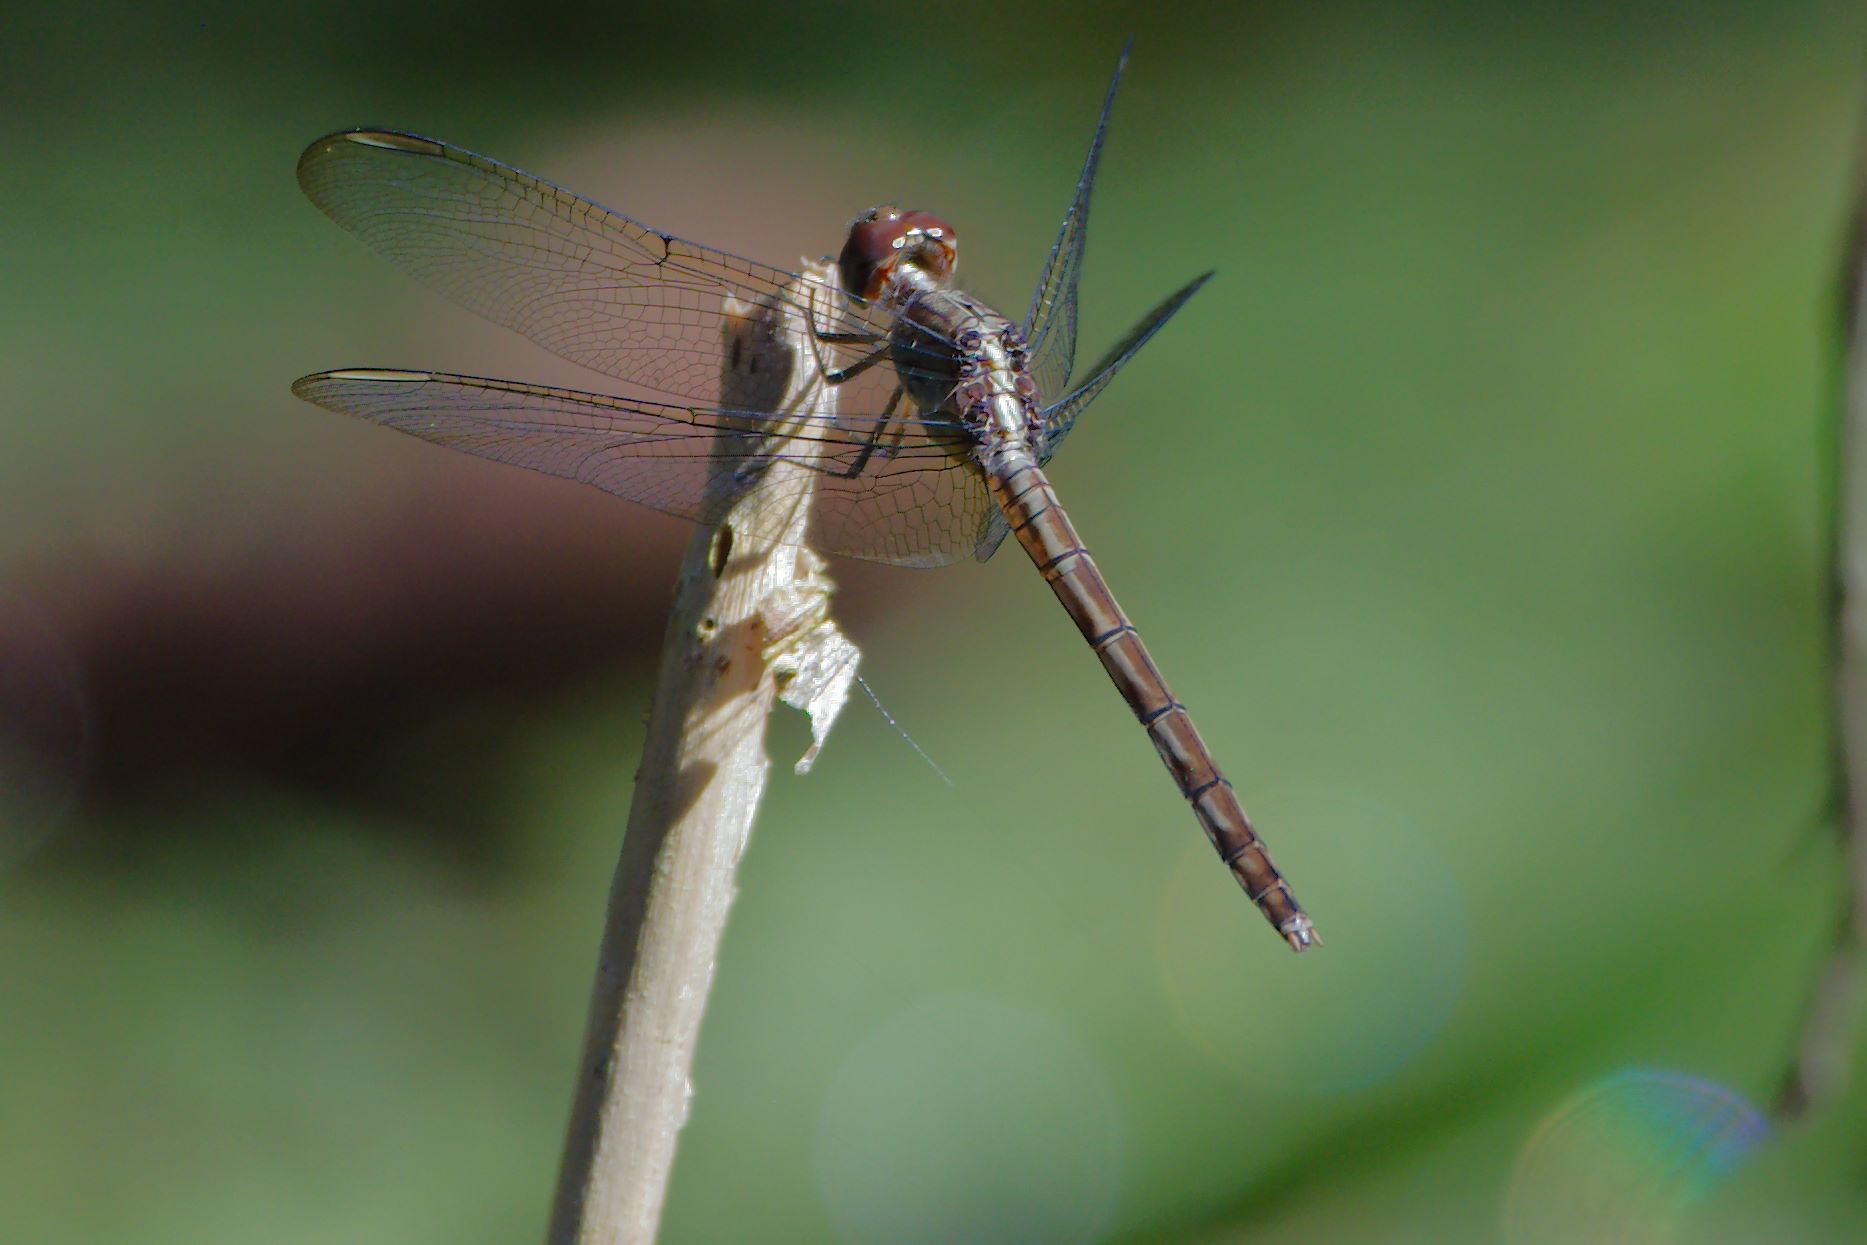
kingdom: Animalia
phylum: Arthropoda
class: Insecta
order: Odonata
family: Libellulidae
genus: Erythrodiplax
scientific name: Erythrodiplax umbrata
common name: Band-winged dragonlet
